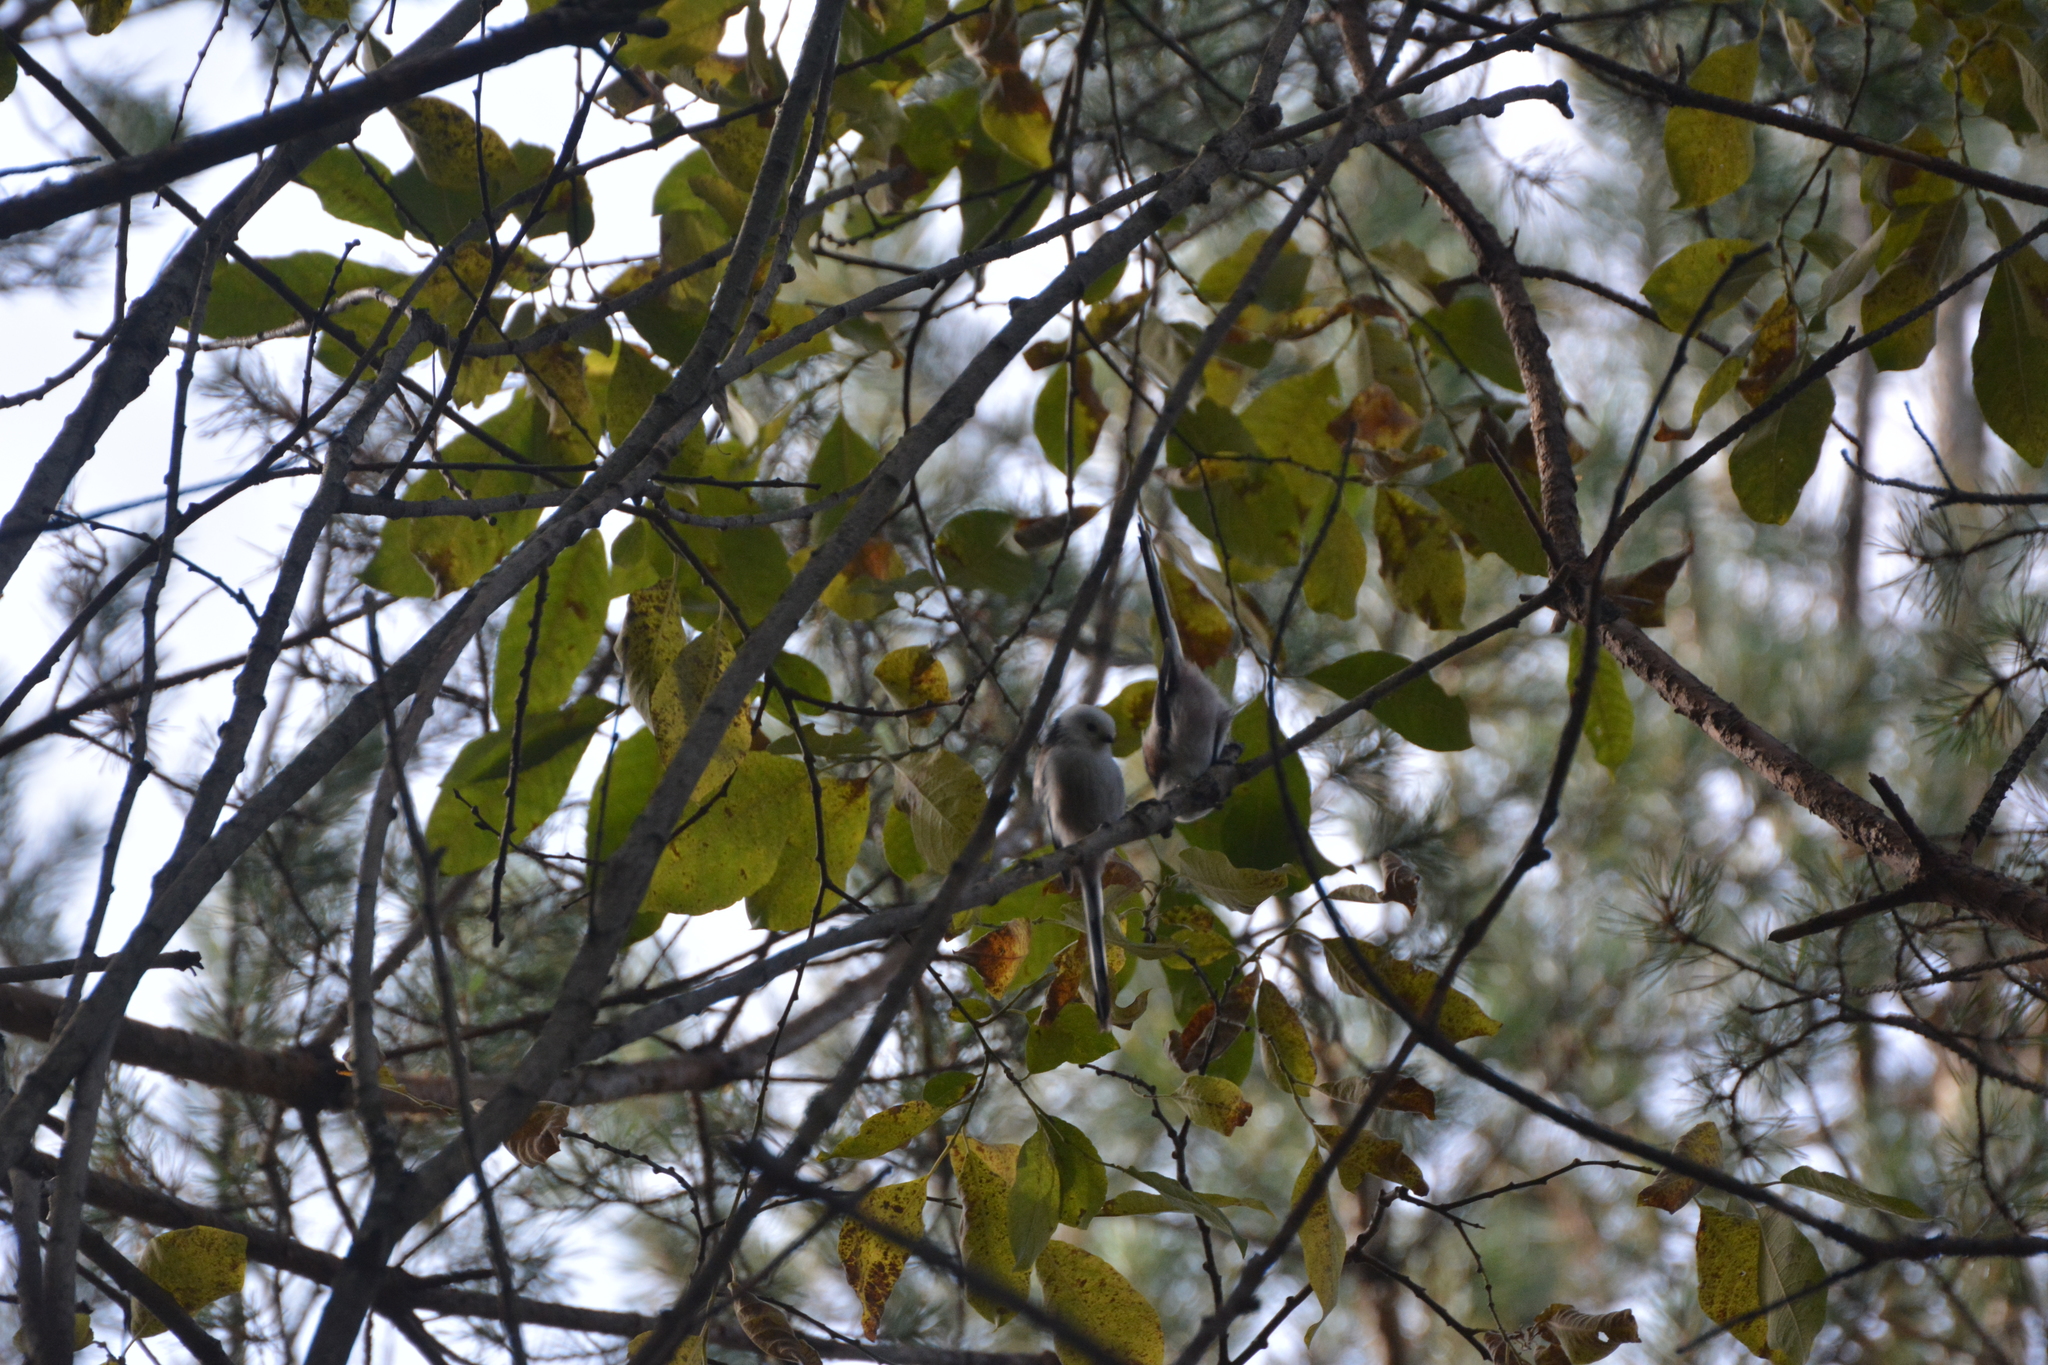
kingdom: Animalia
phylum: Chordata
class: Aves
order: Passeriformes
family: Aegithalidae
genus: Aegithalos
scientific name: Aegithalos caudatus
